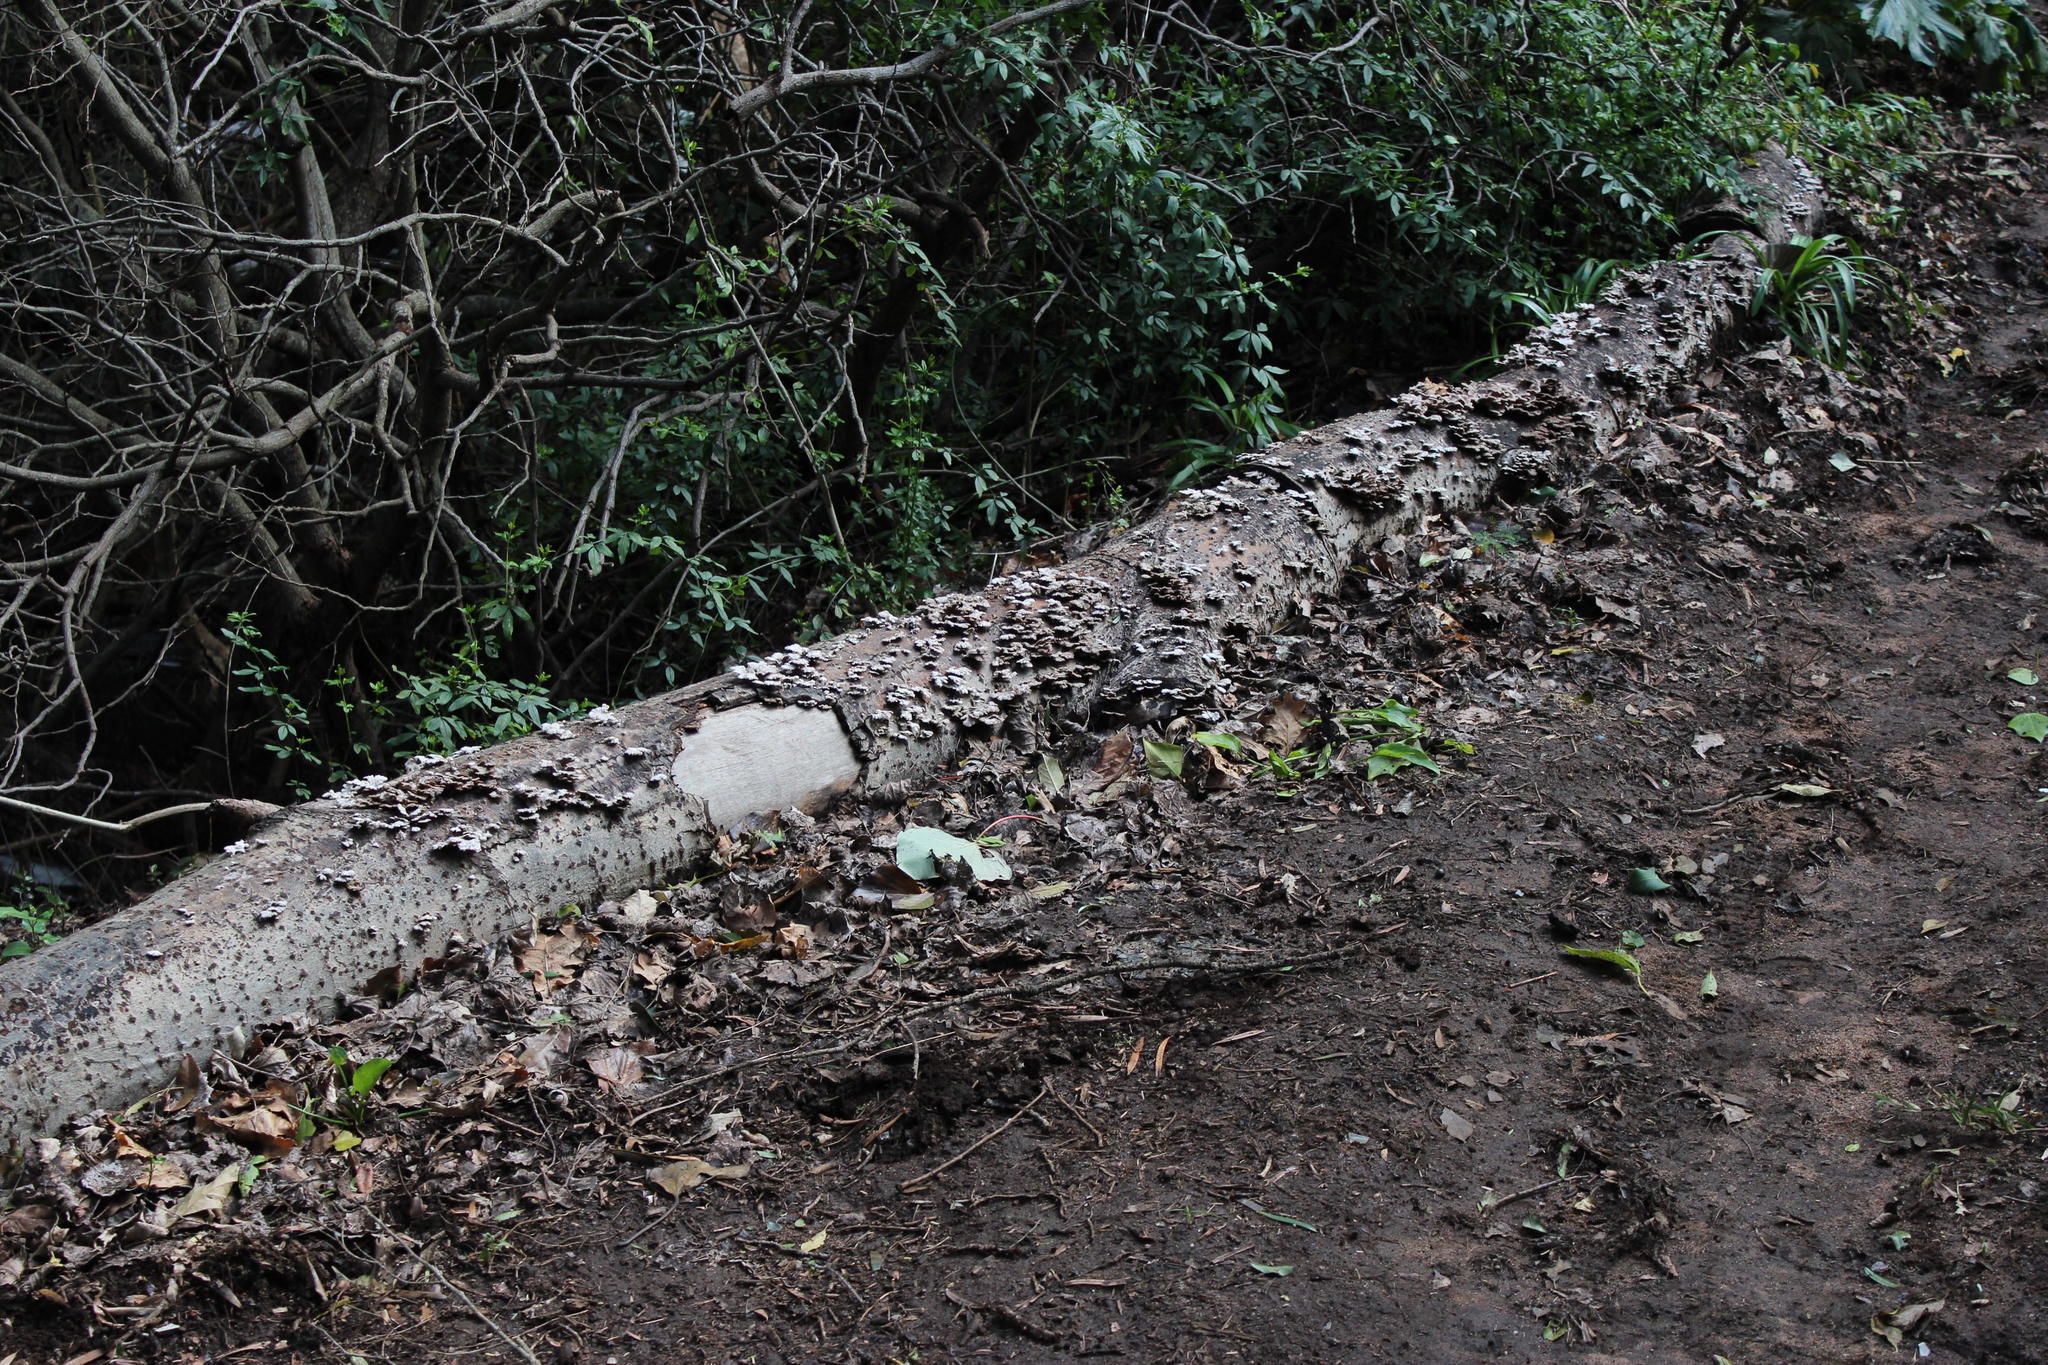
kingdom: Fungi
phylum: Basidiomycota
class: Agaricomycetes
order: Agaricales
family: Schizophyllaceae
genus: Schizophyllum
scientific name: Schizophyllum commune
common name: Common porecrust
